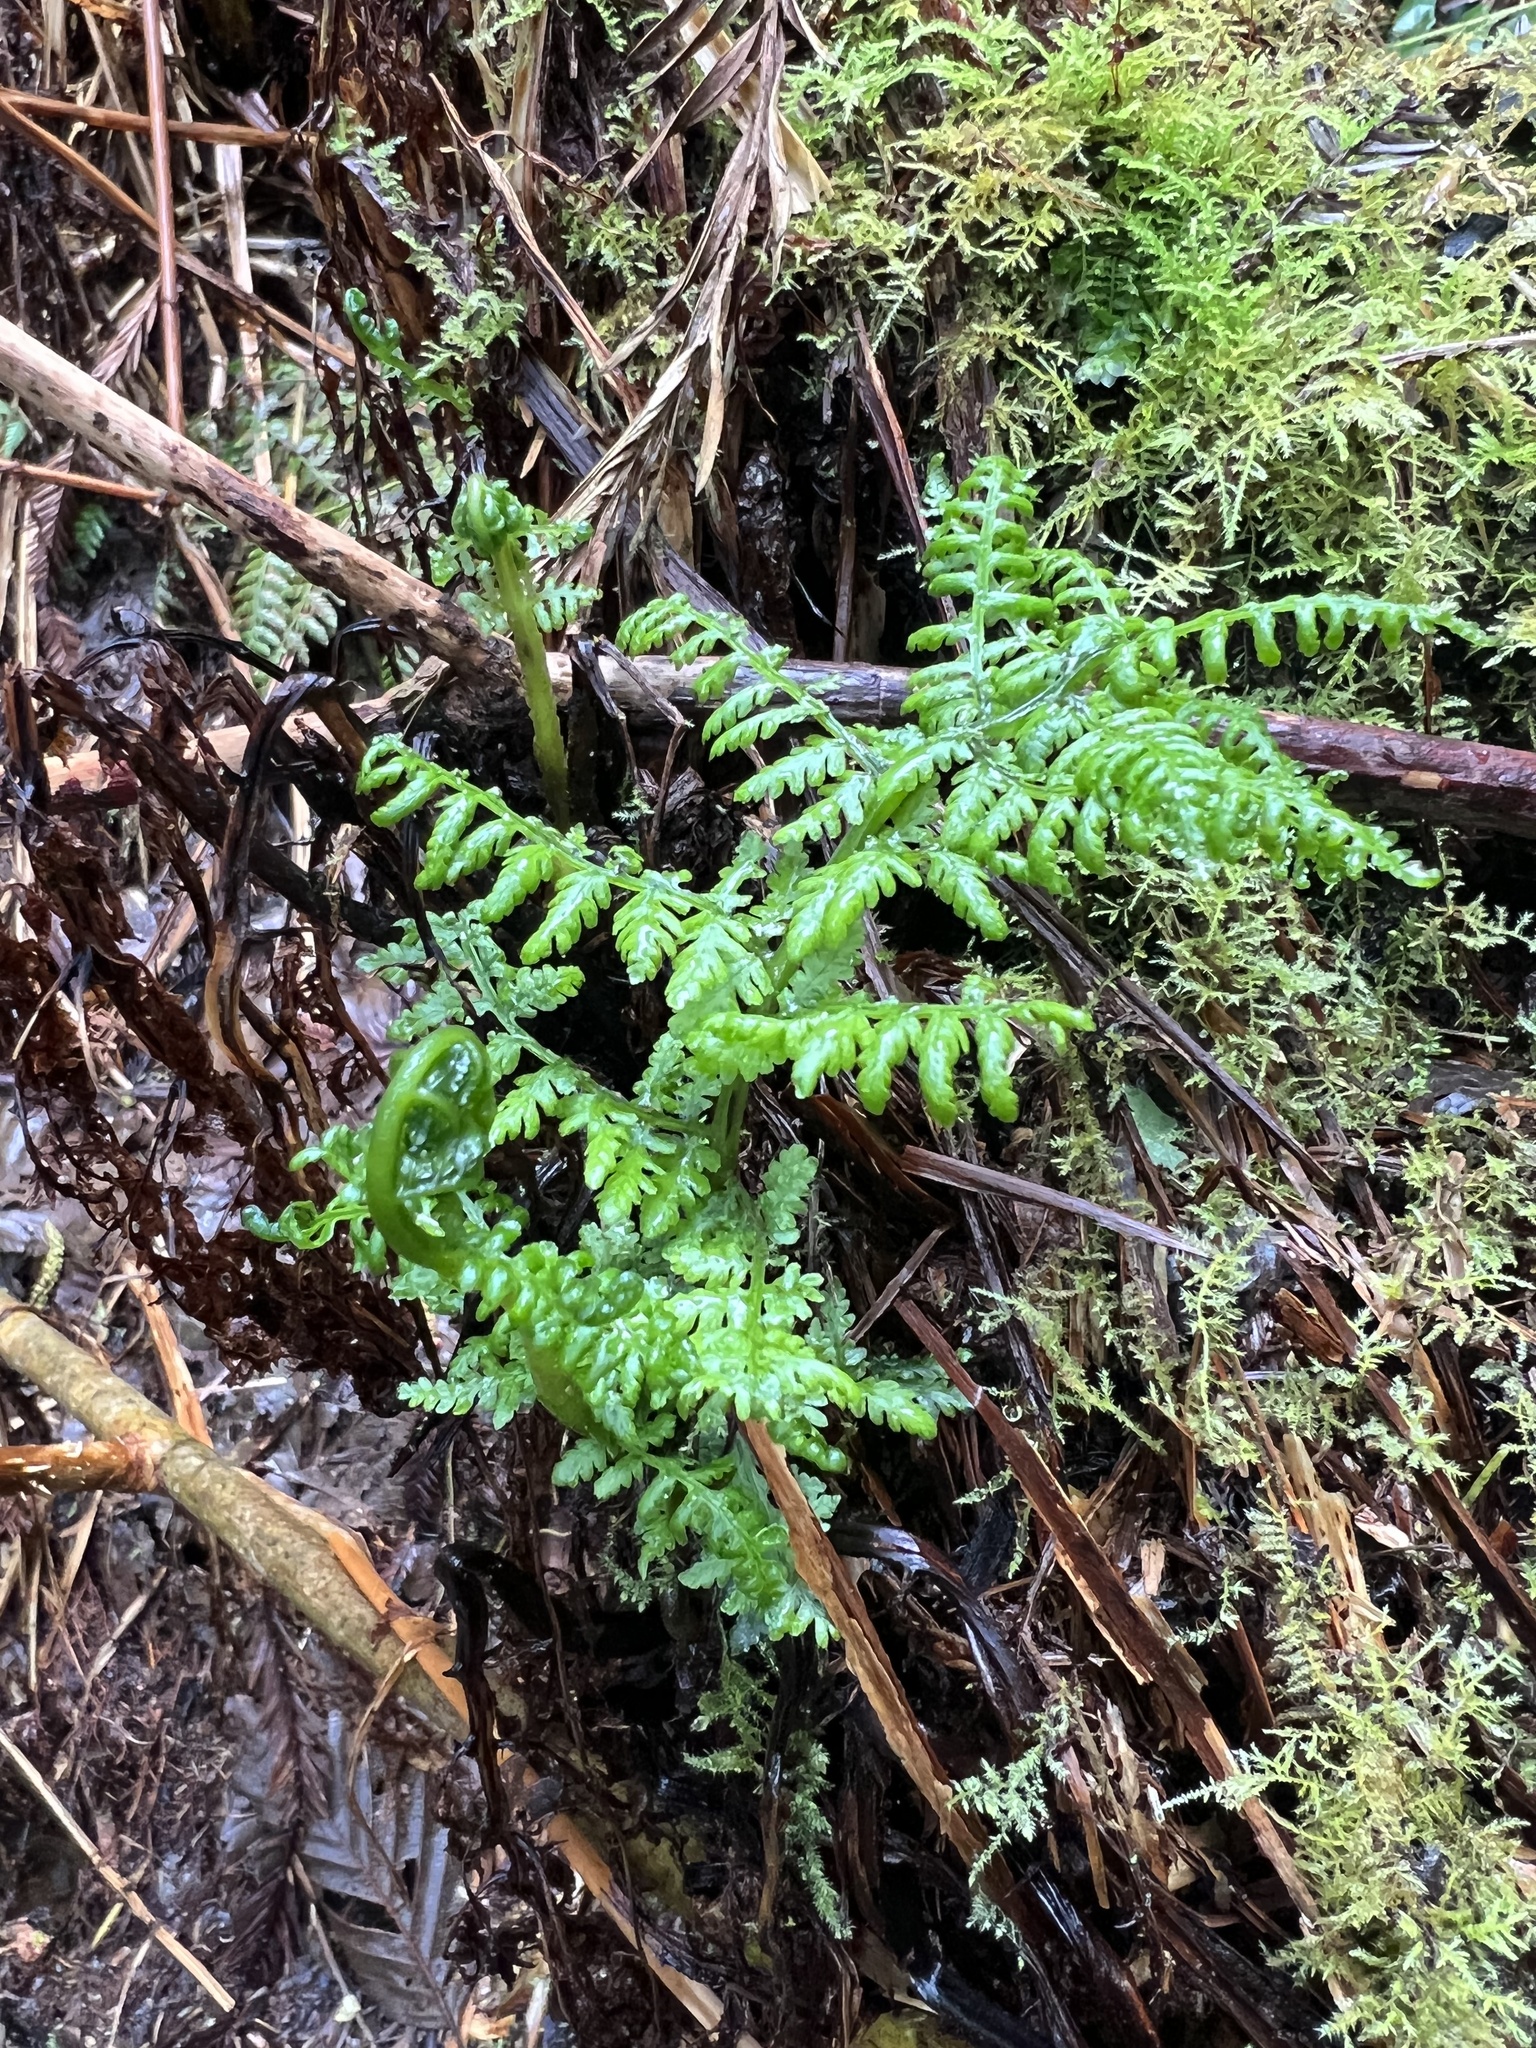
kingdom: Plantae
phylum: Tracheophyta
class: Polypodiopsida
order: Polypodiales
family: Athyriaceae
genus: Athyrium
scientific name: Athyrium cyclosorum
